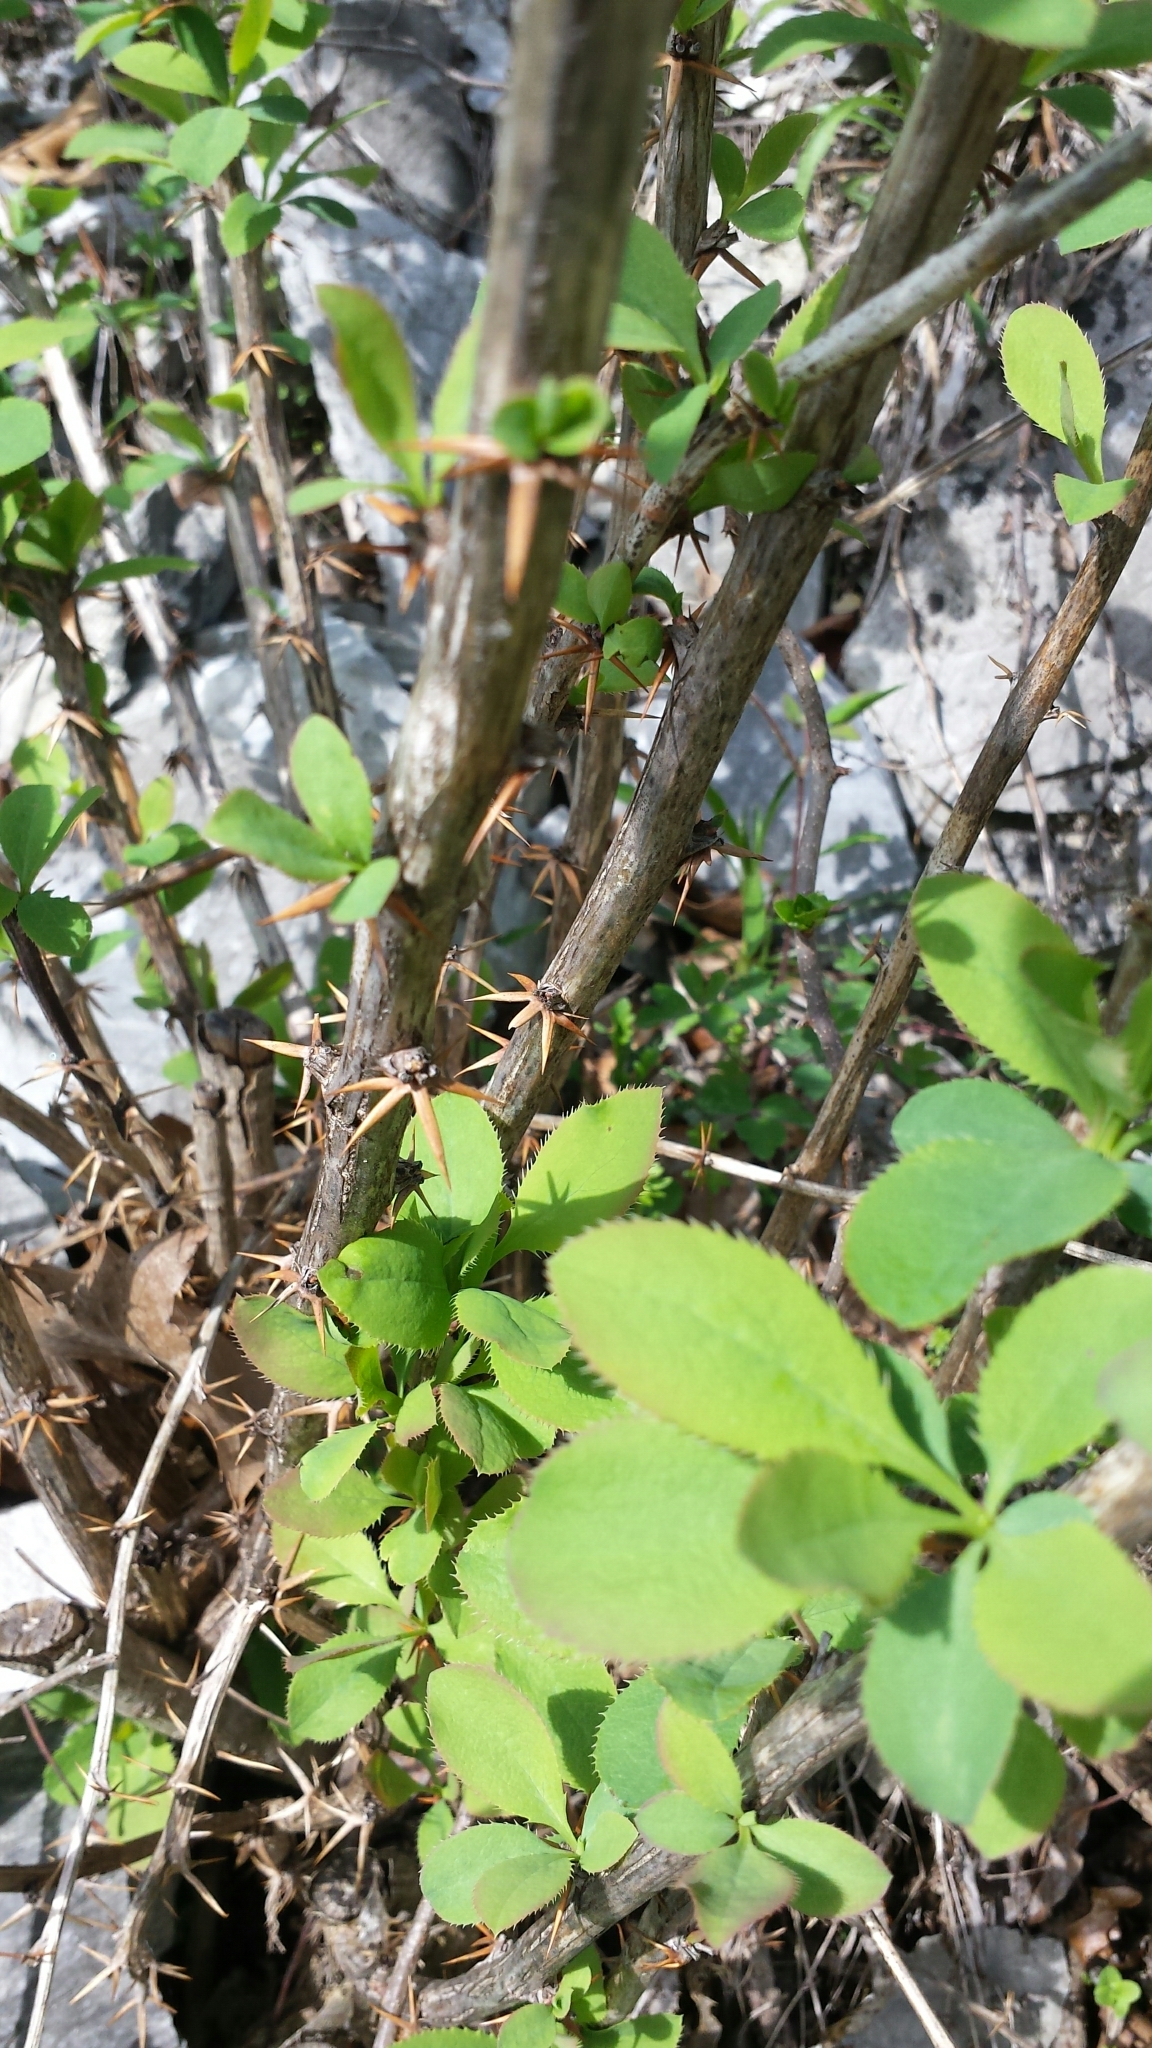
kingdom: Plantae
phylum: Tracheophyta
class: Magnoliopsida
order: Ranunculales
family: Berberidaceae
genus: Berberis
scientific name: Berberis vulgaris
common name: Barberry
